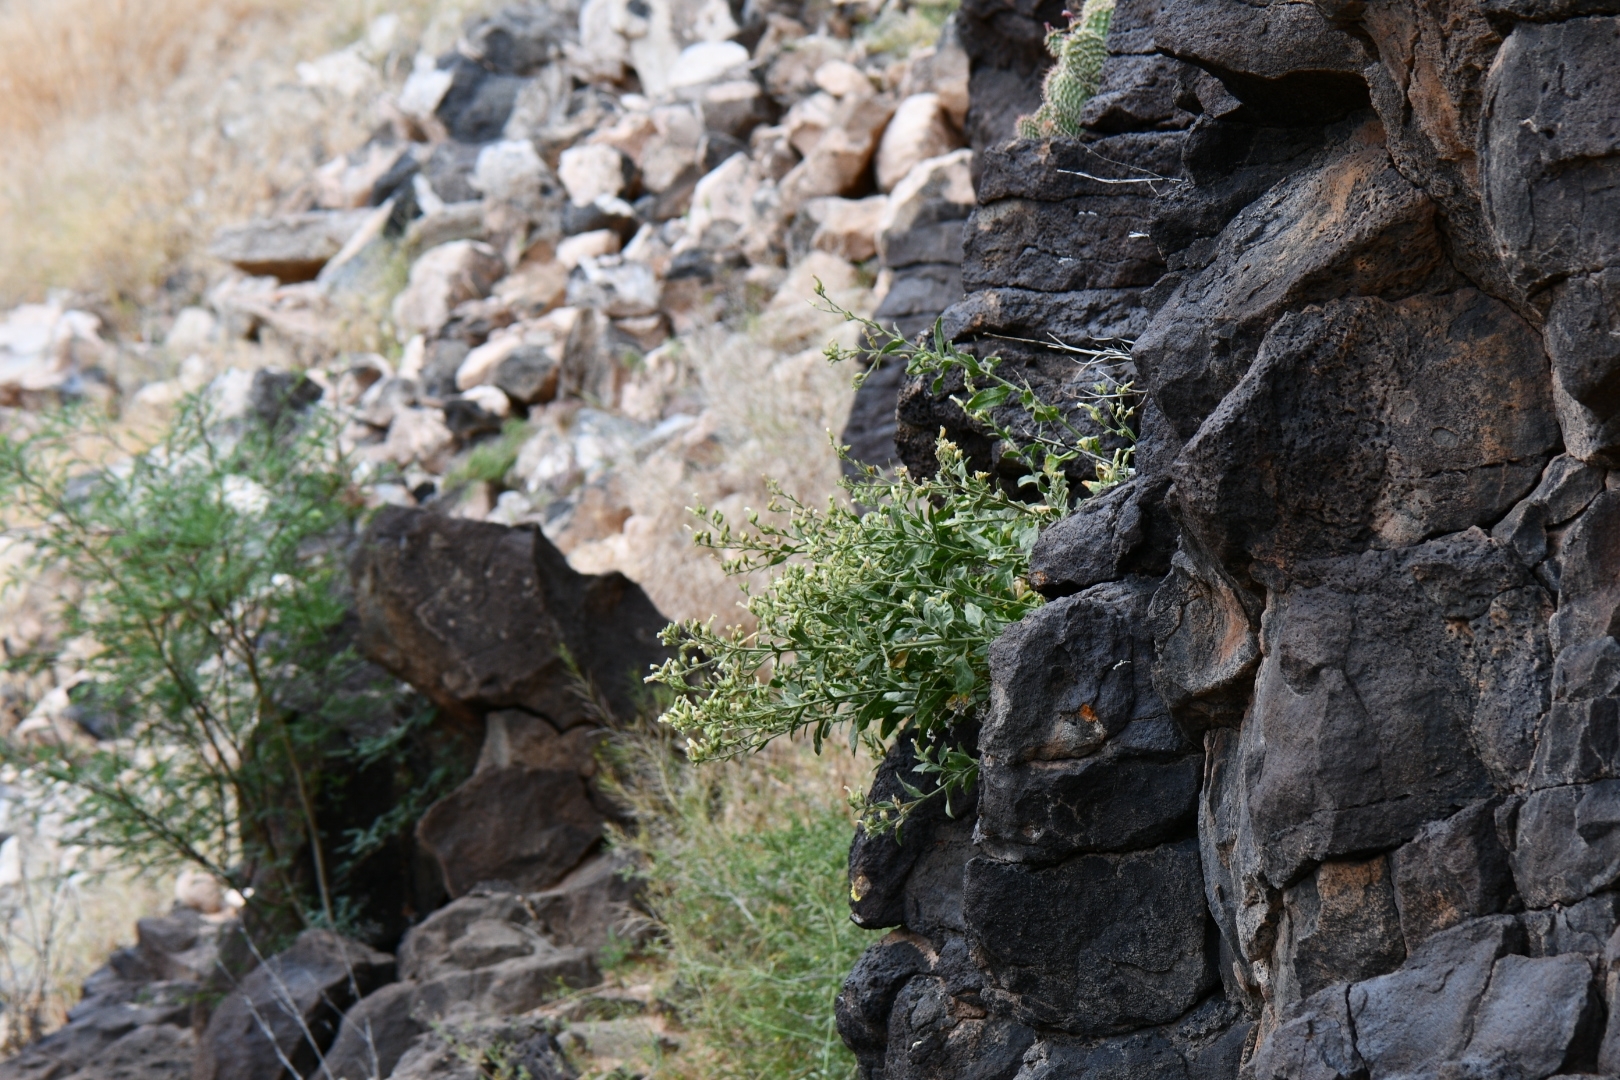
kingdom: Plantae
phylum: Tracheophyta
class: Magnoliopsida
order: Solanales
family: Solanaceae
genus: Nicotiana
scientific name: Nicotiana obtusifolia
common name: Desert tobacco
